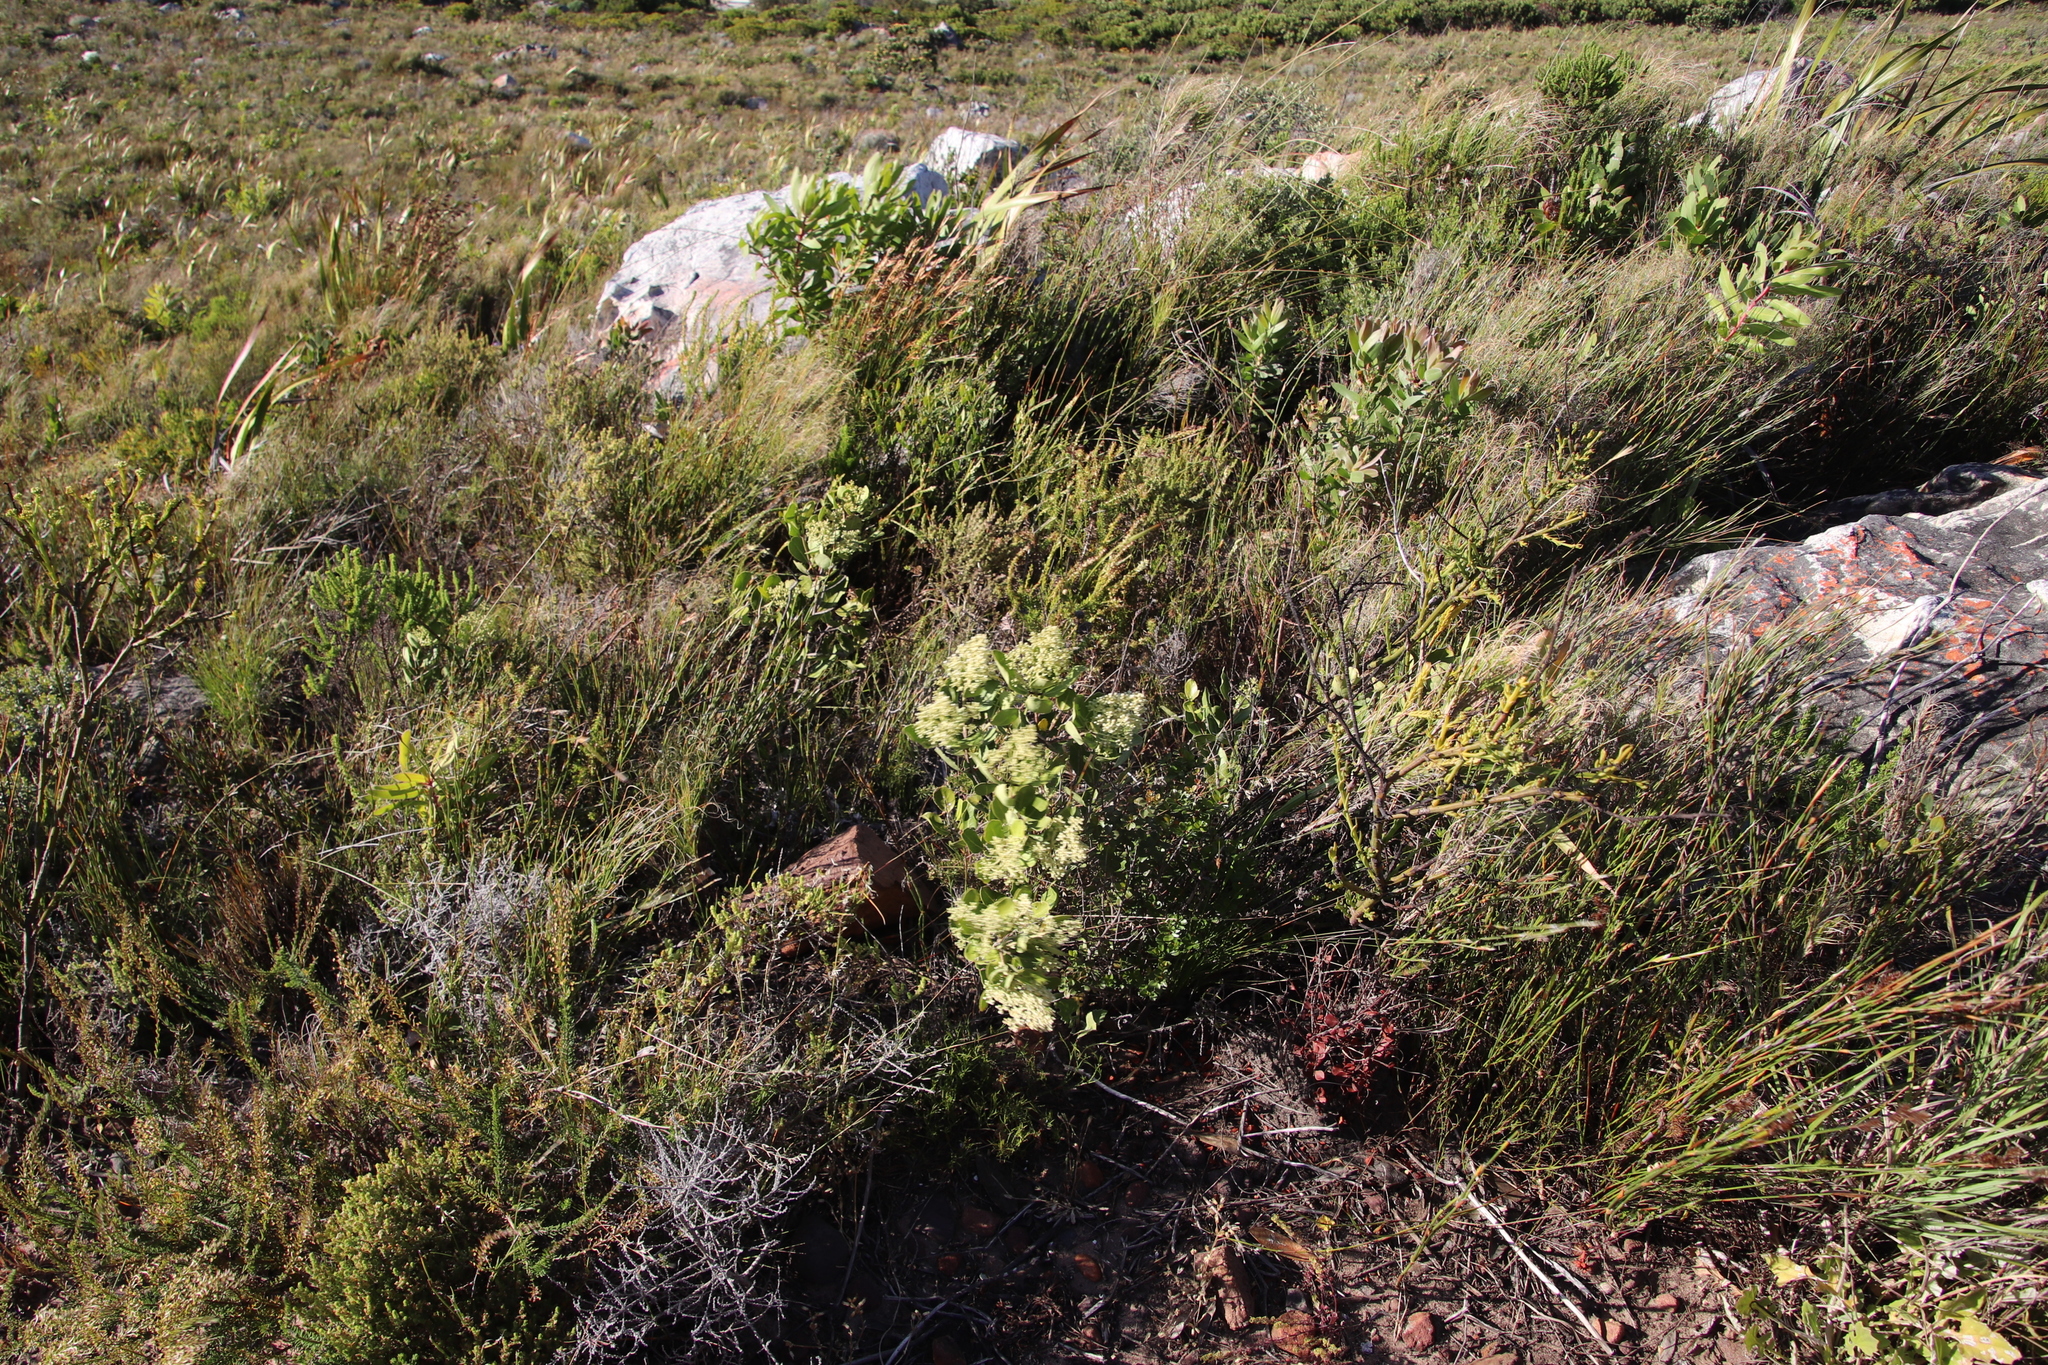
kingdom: Plantae
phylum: Tracheophyta
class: Magnoliopsida
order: Lamiales
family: Oleaceae
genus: Olea
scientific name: Olea capensis
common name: Black ironwood
